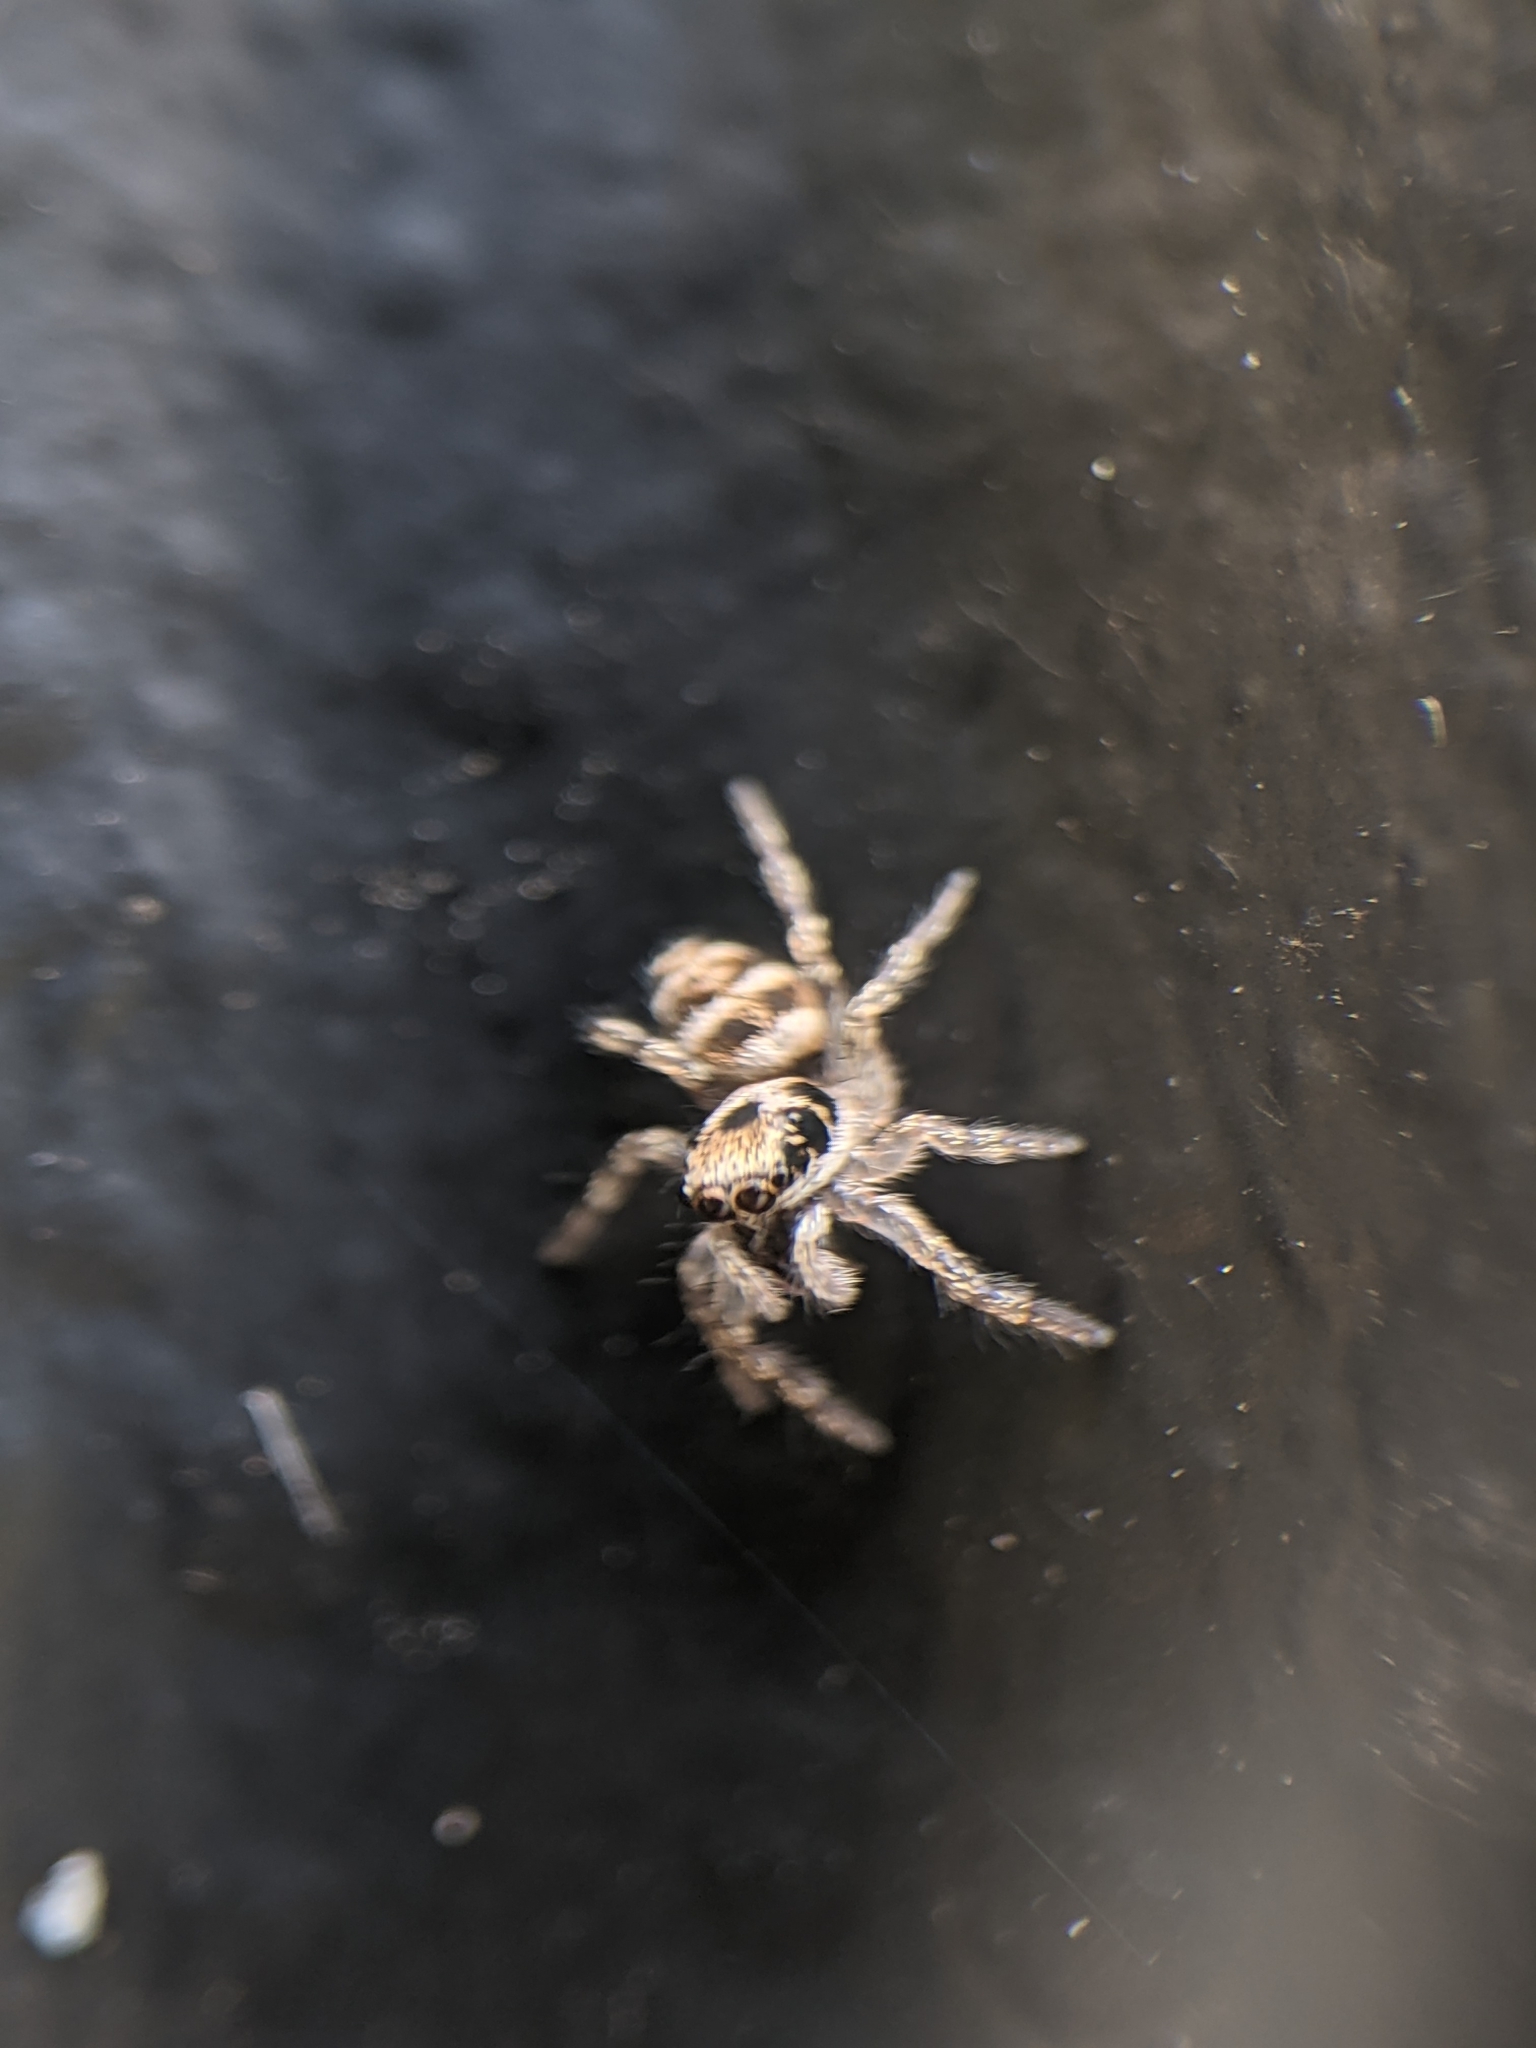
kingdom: Animalia
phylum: Arthropoda
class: Arachnida
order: Araneae
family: Salticidae
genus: Salticus
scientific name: Salticus scenicus
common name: Zebra jumper
